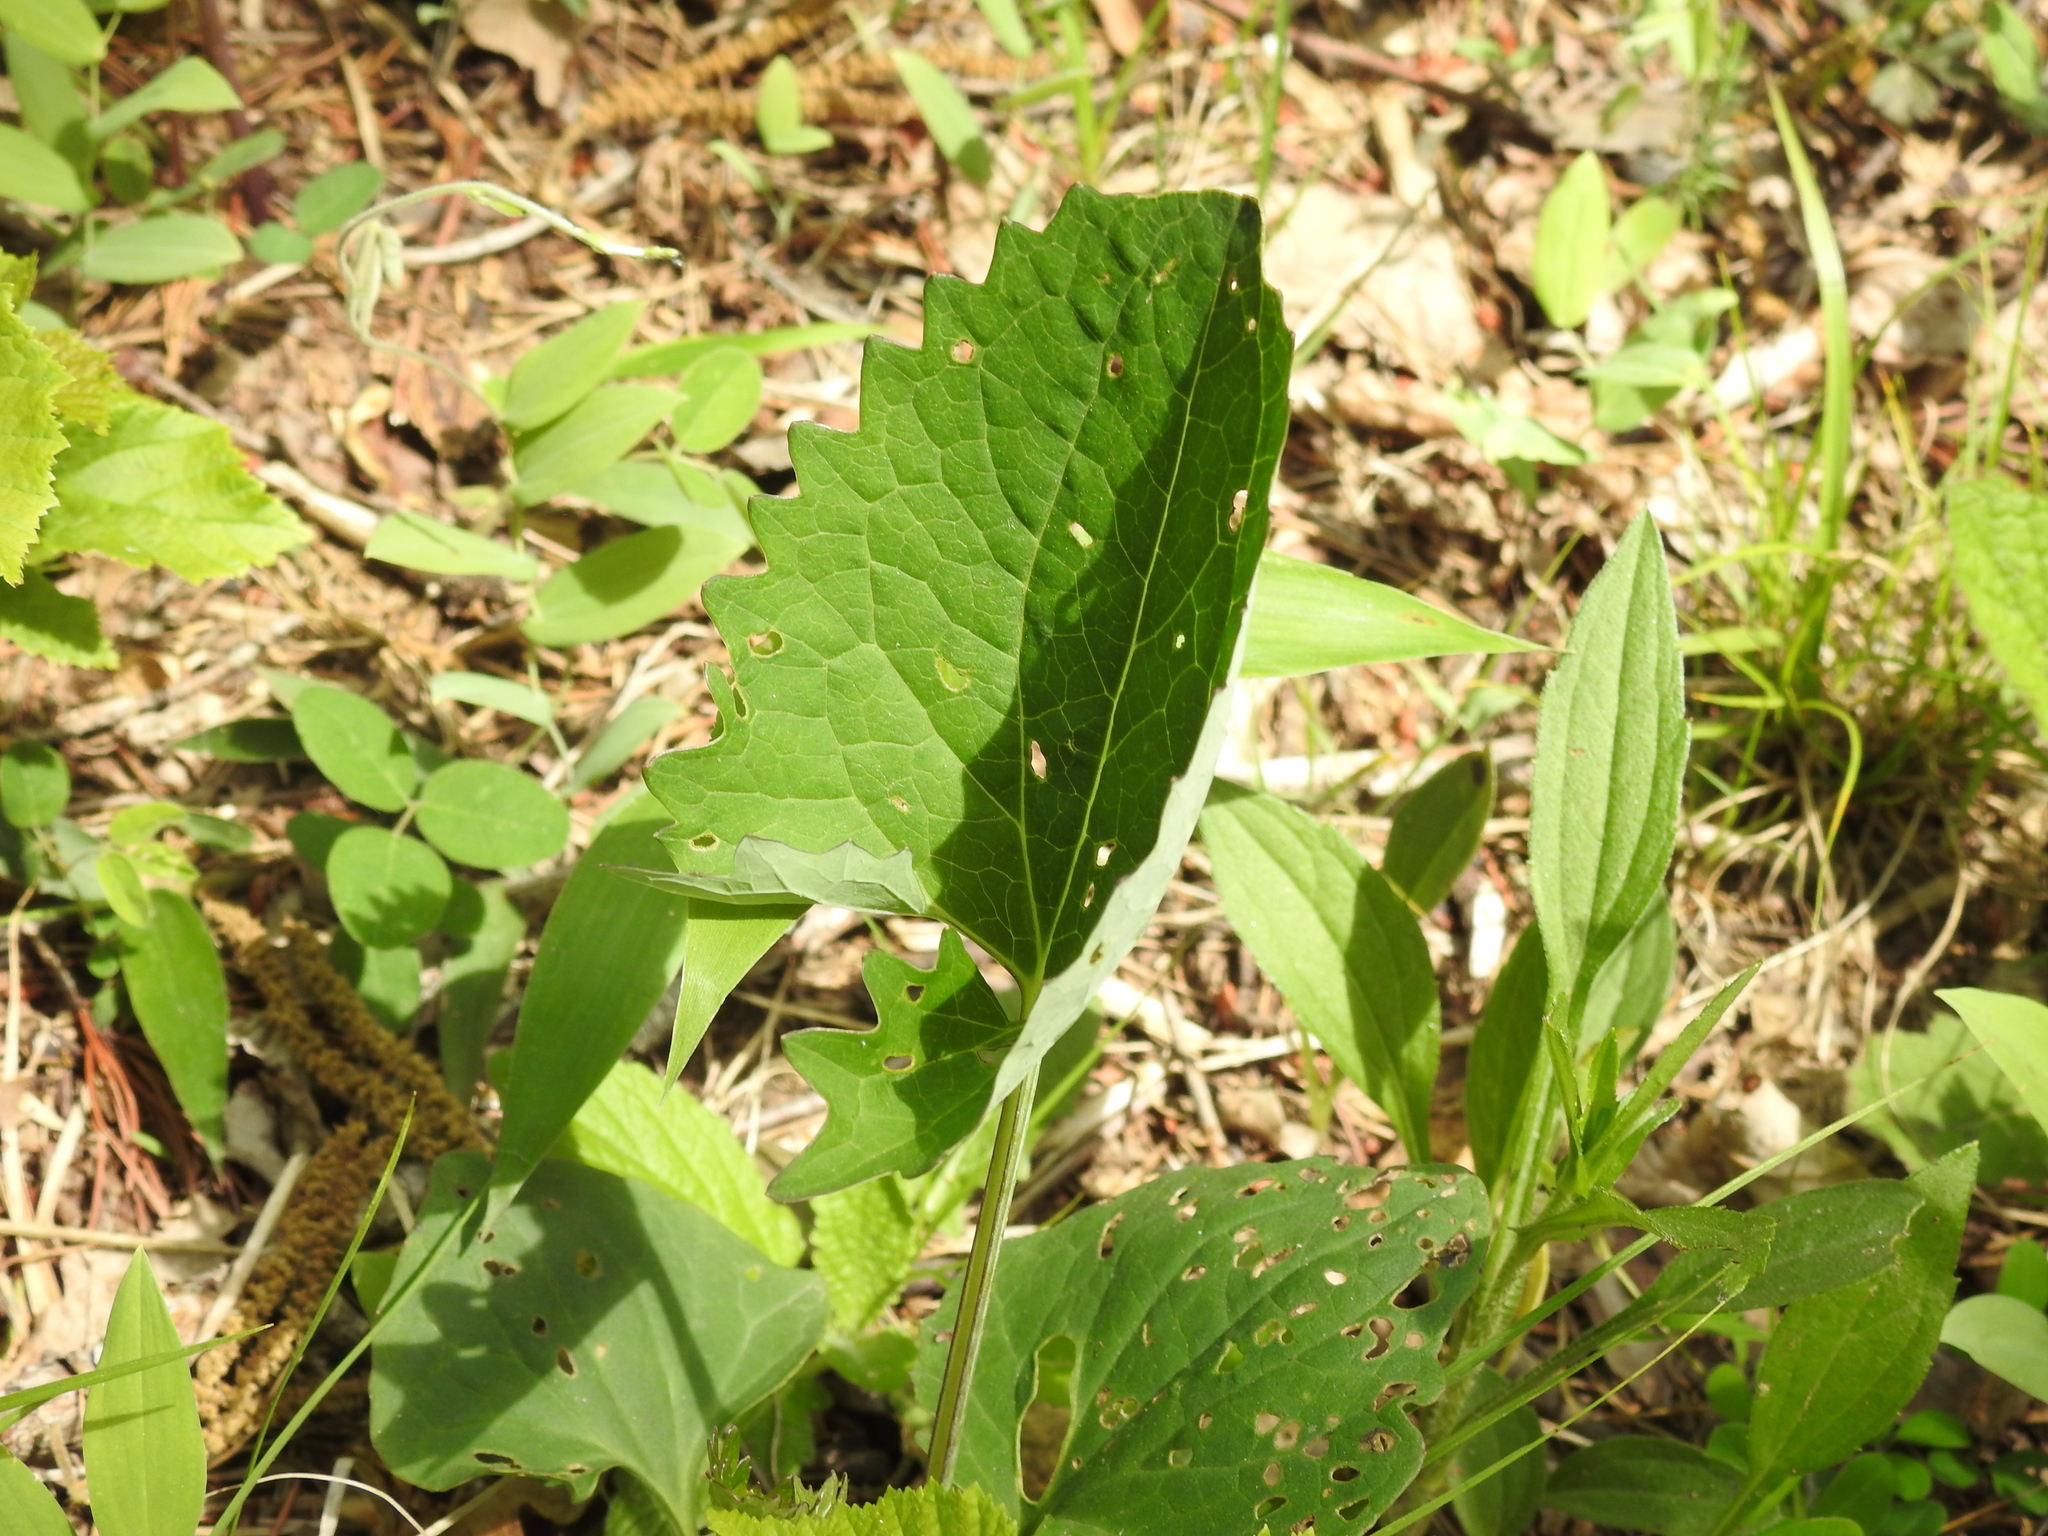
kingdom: Plantae
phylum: Tracheophyta
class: Magnoliopsida
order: Asterales
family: Asteraceae
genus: Arnoglossum
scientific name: Arnoglossum atriplicifolium
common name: Pale indian-plantain
